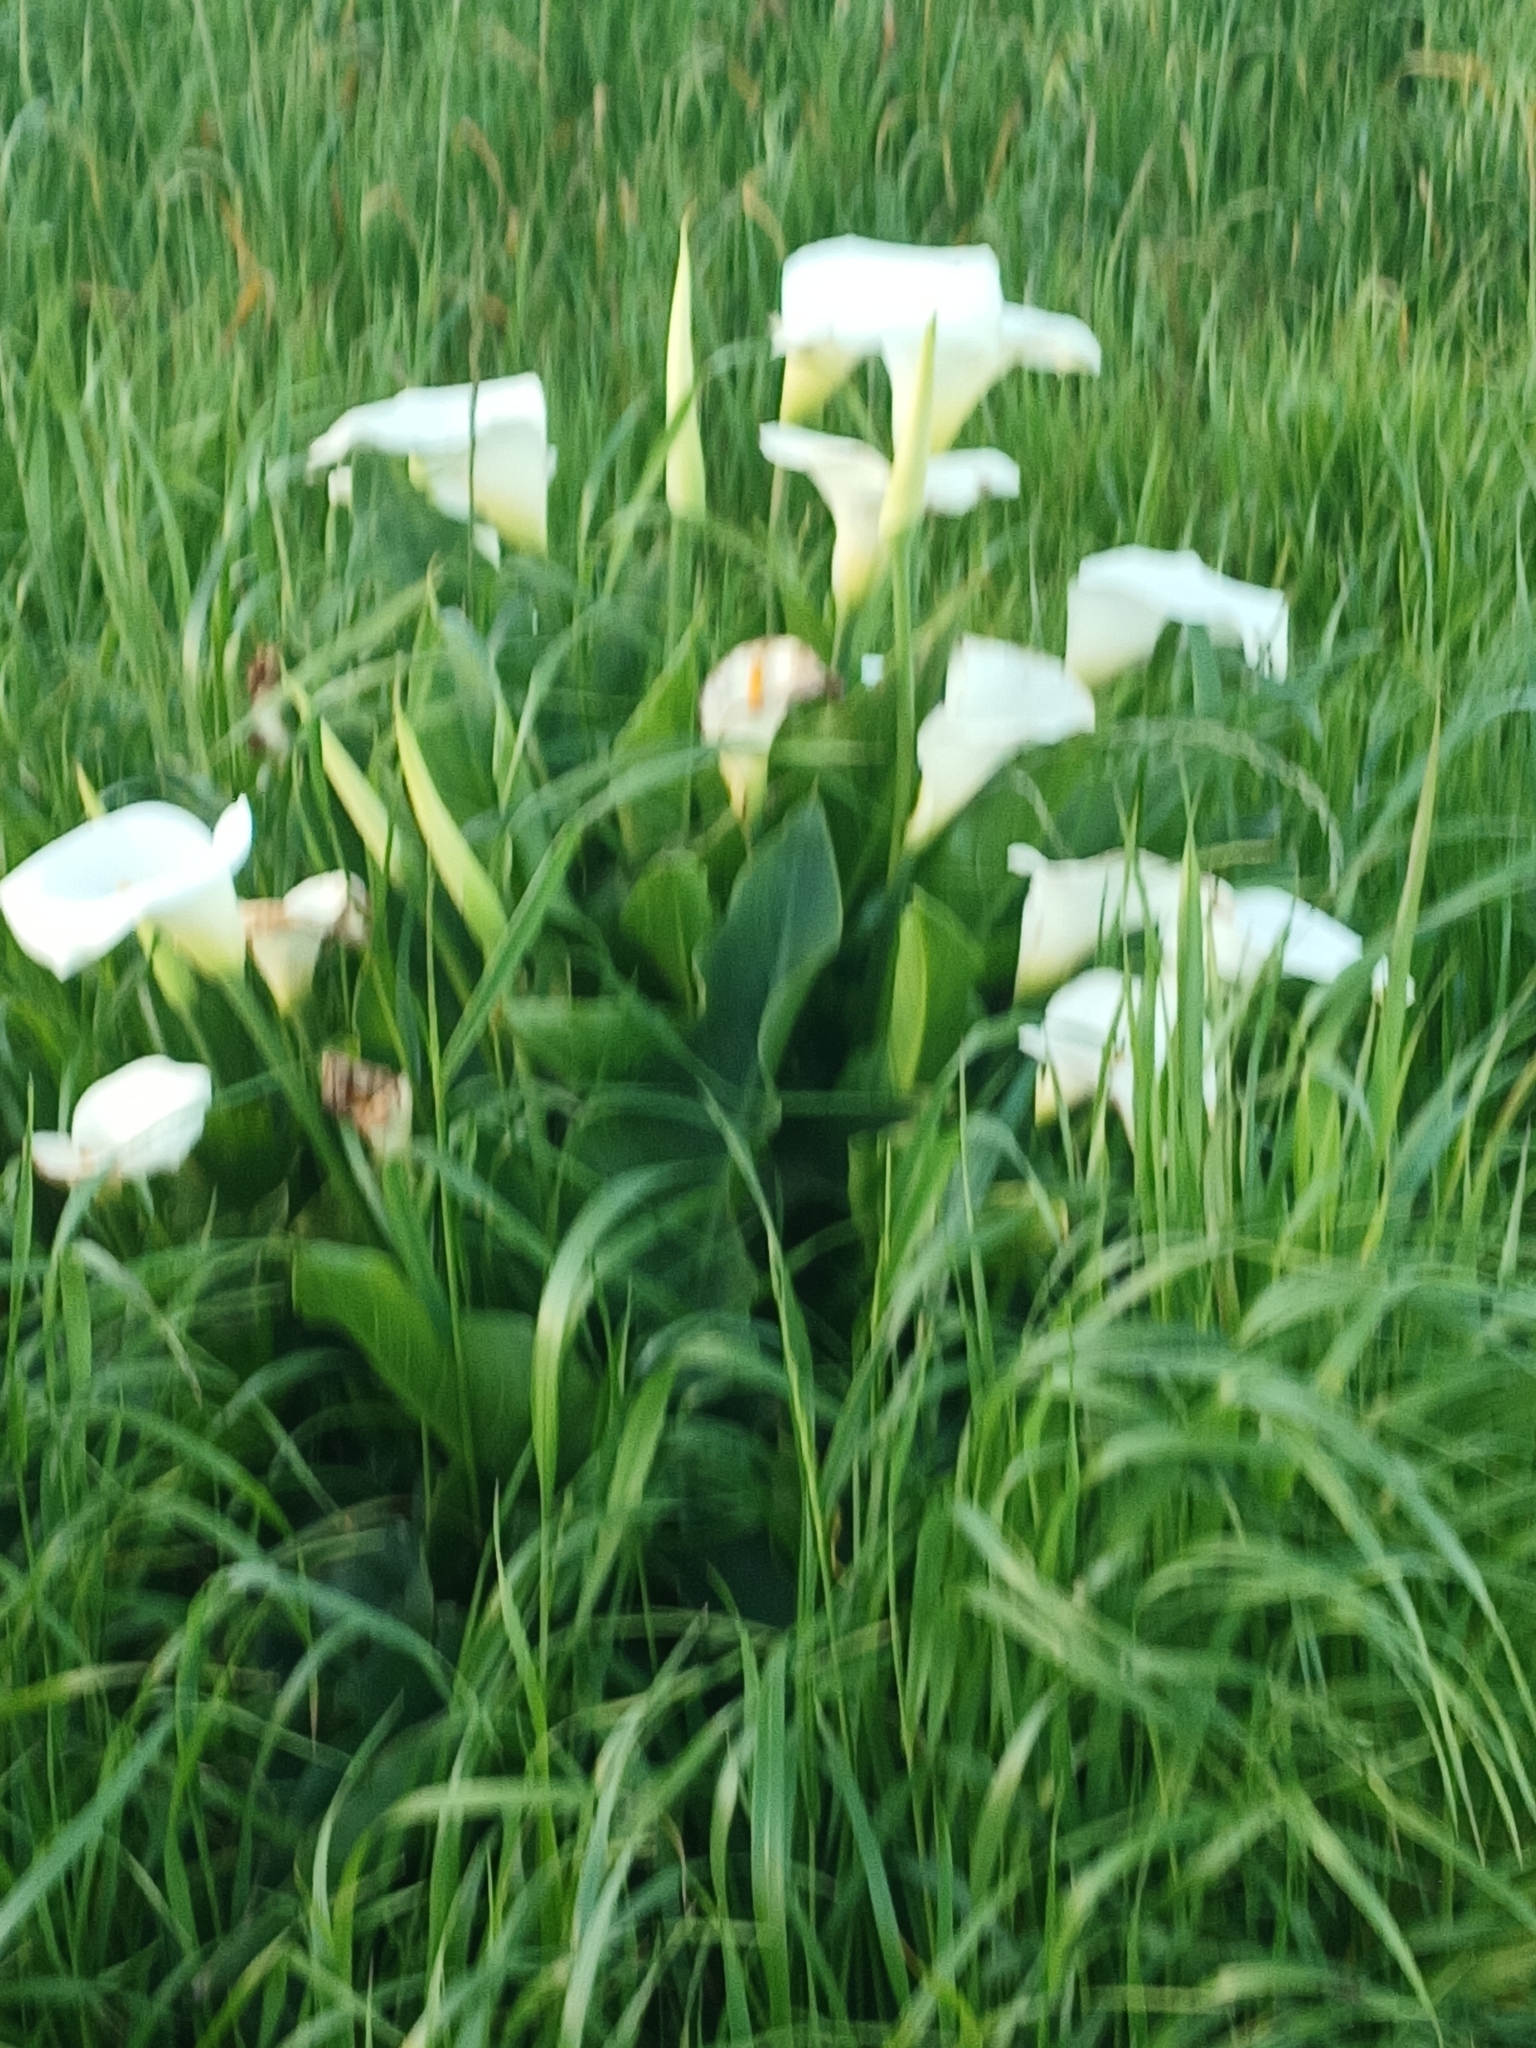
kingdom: Plantae
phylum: Tracheophyta
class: Liliopsida
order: Alismatales
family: Araceae
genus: Zantedeschia
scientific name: Zantedeschia aethiopica
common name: Altar-lily
